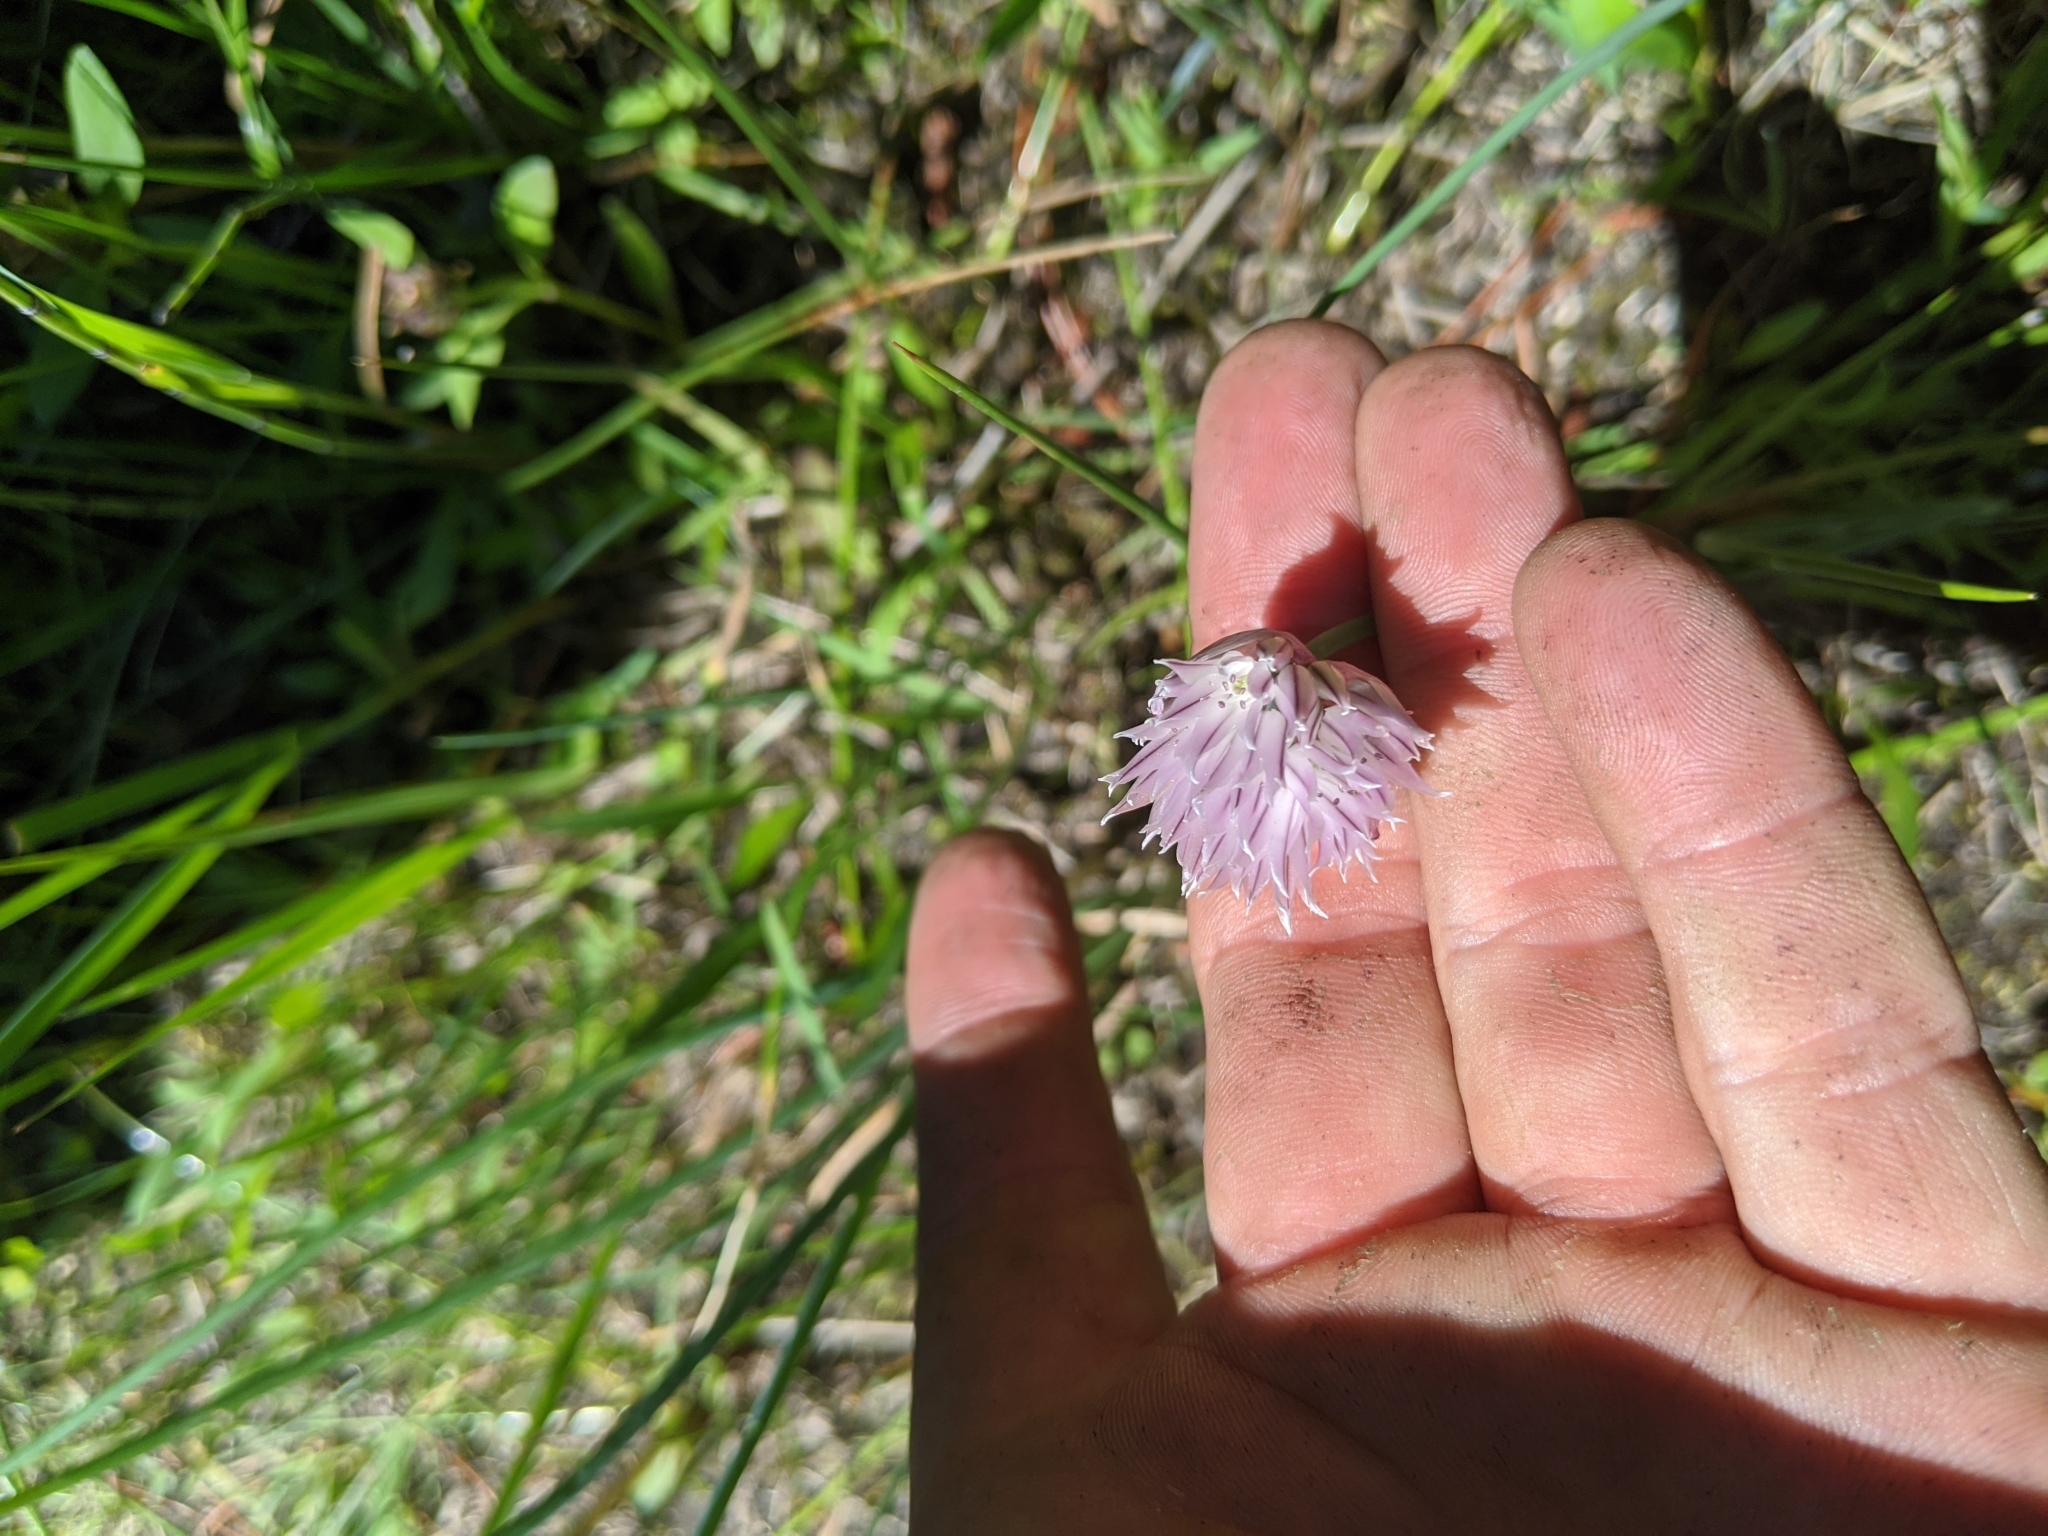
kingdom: Plantae
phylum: Tracheophyta
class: Liliopsida
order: Asparagales
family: Amaryllidaceae
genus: Allium
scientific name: Allium schoenoprasum
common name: Chives
